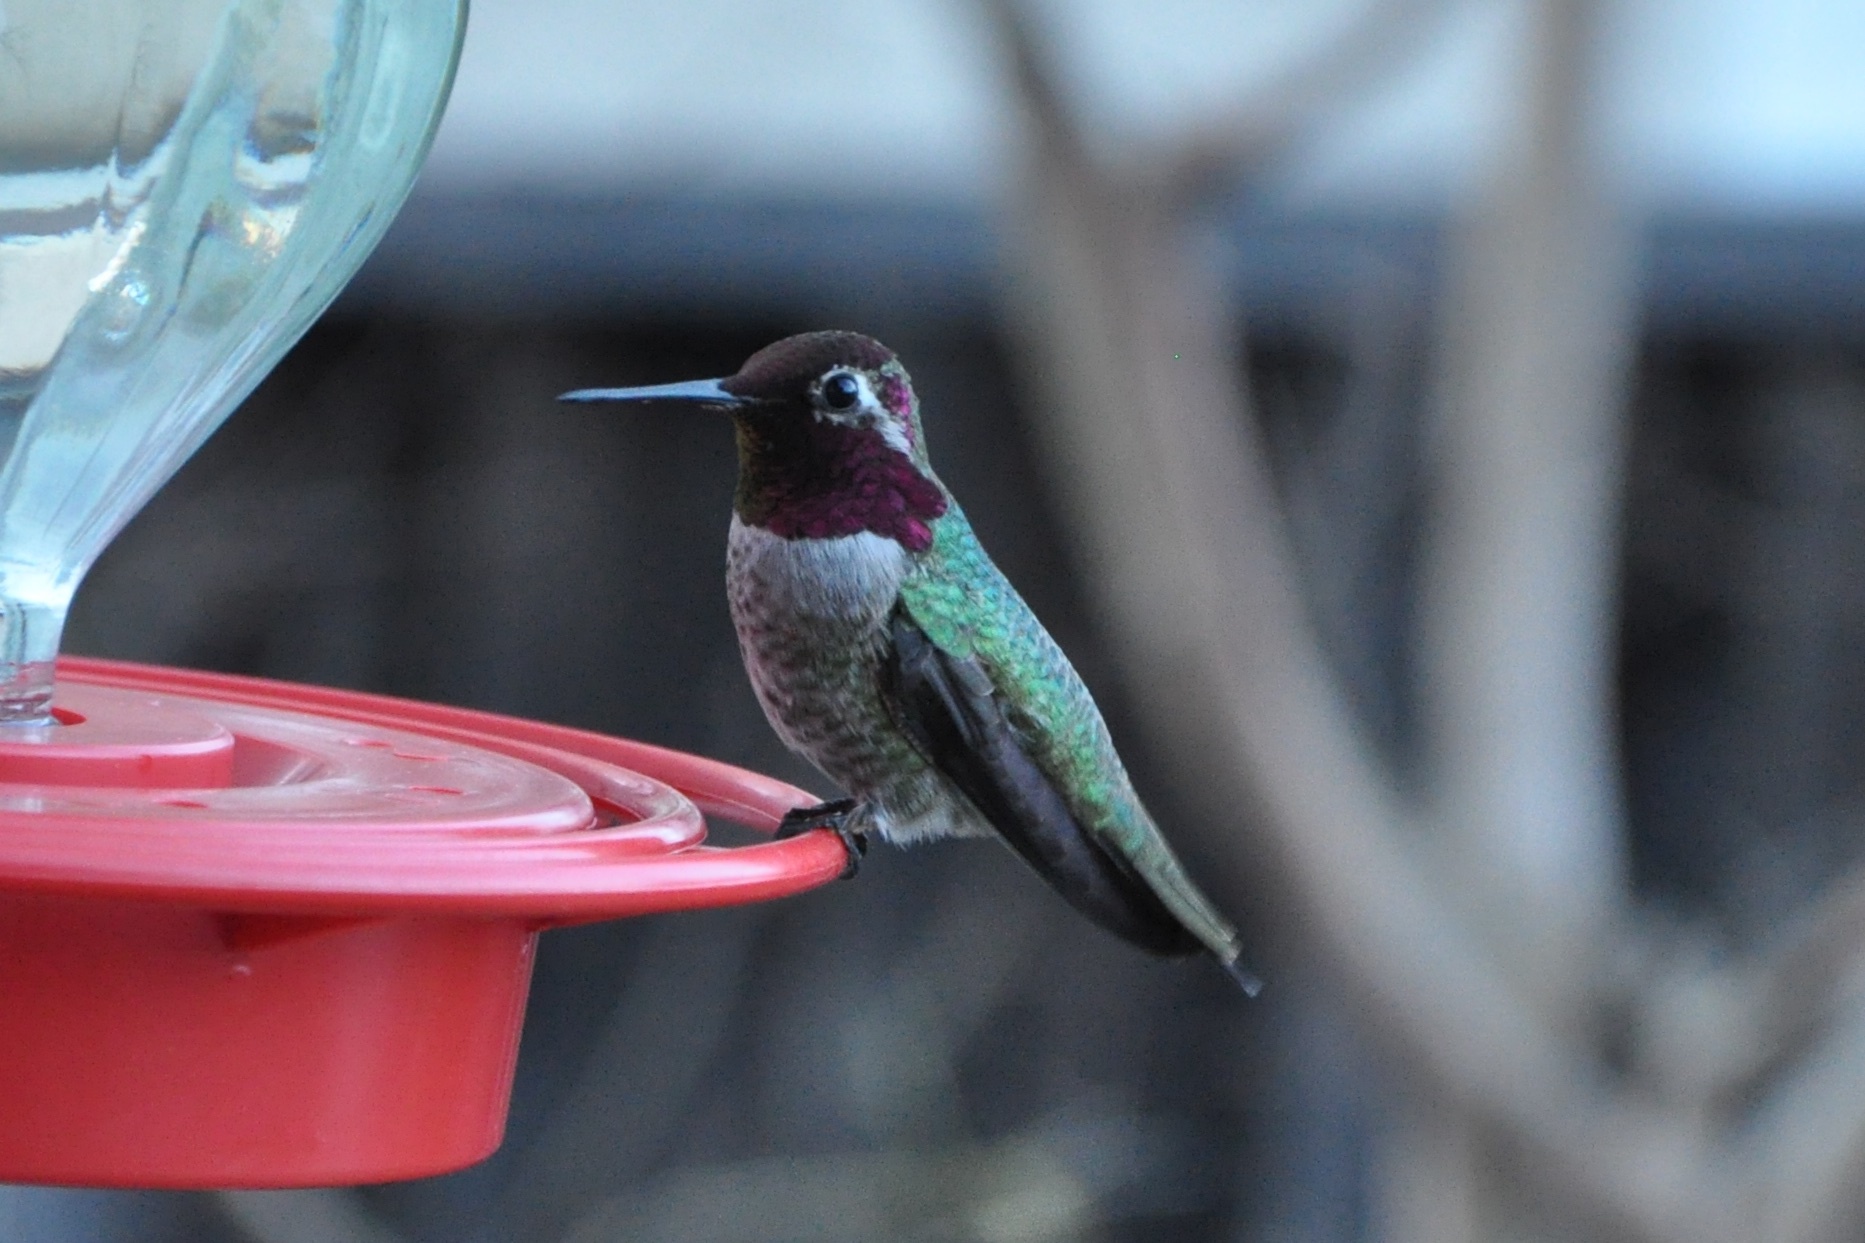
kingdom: Animalia
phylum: Chordata
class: Aves
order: Apodiformes
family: Trochilidae
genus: Calypte
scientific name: Calypte anna
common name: Anna's hummingbird
